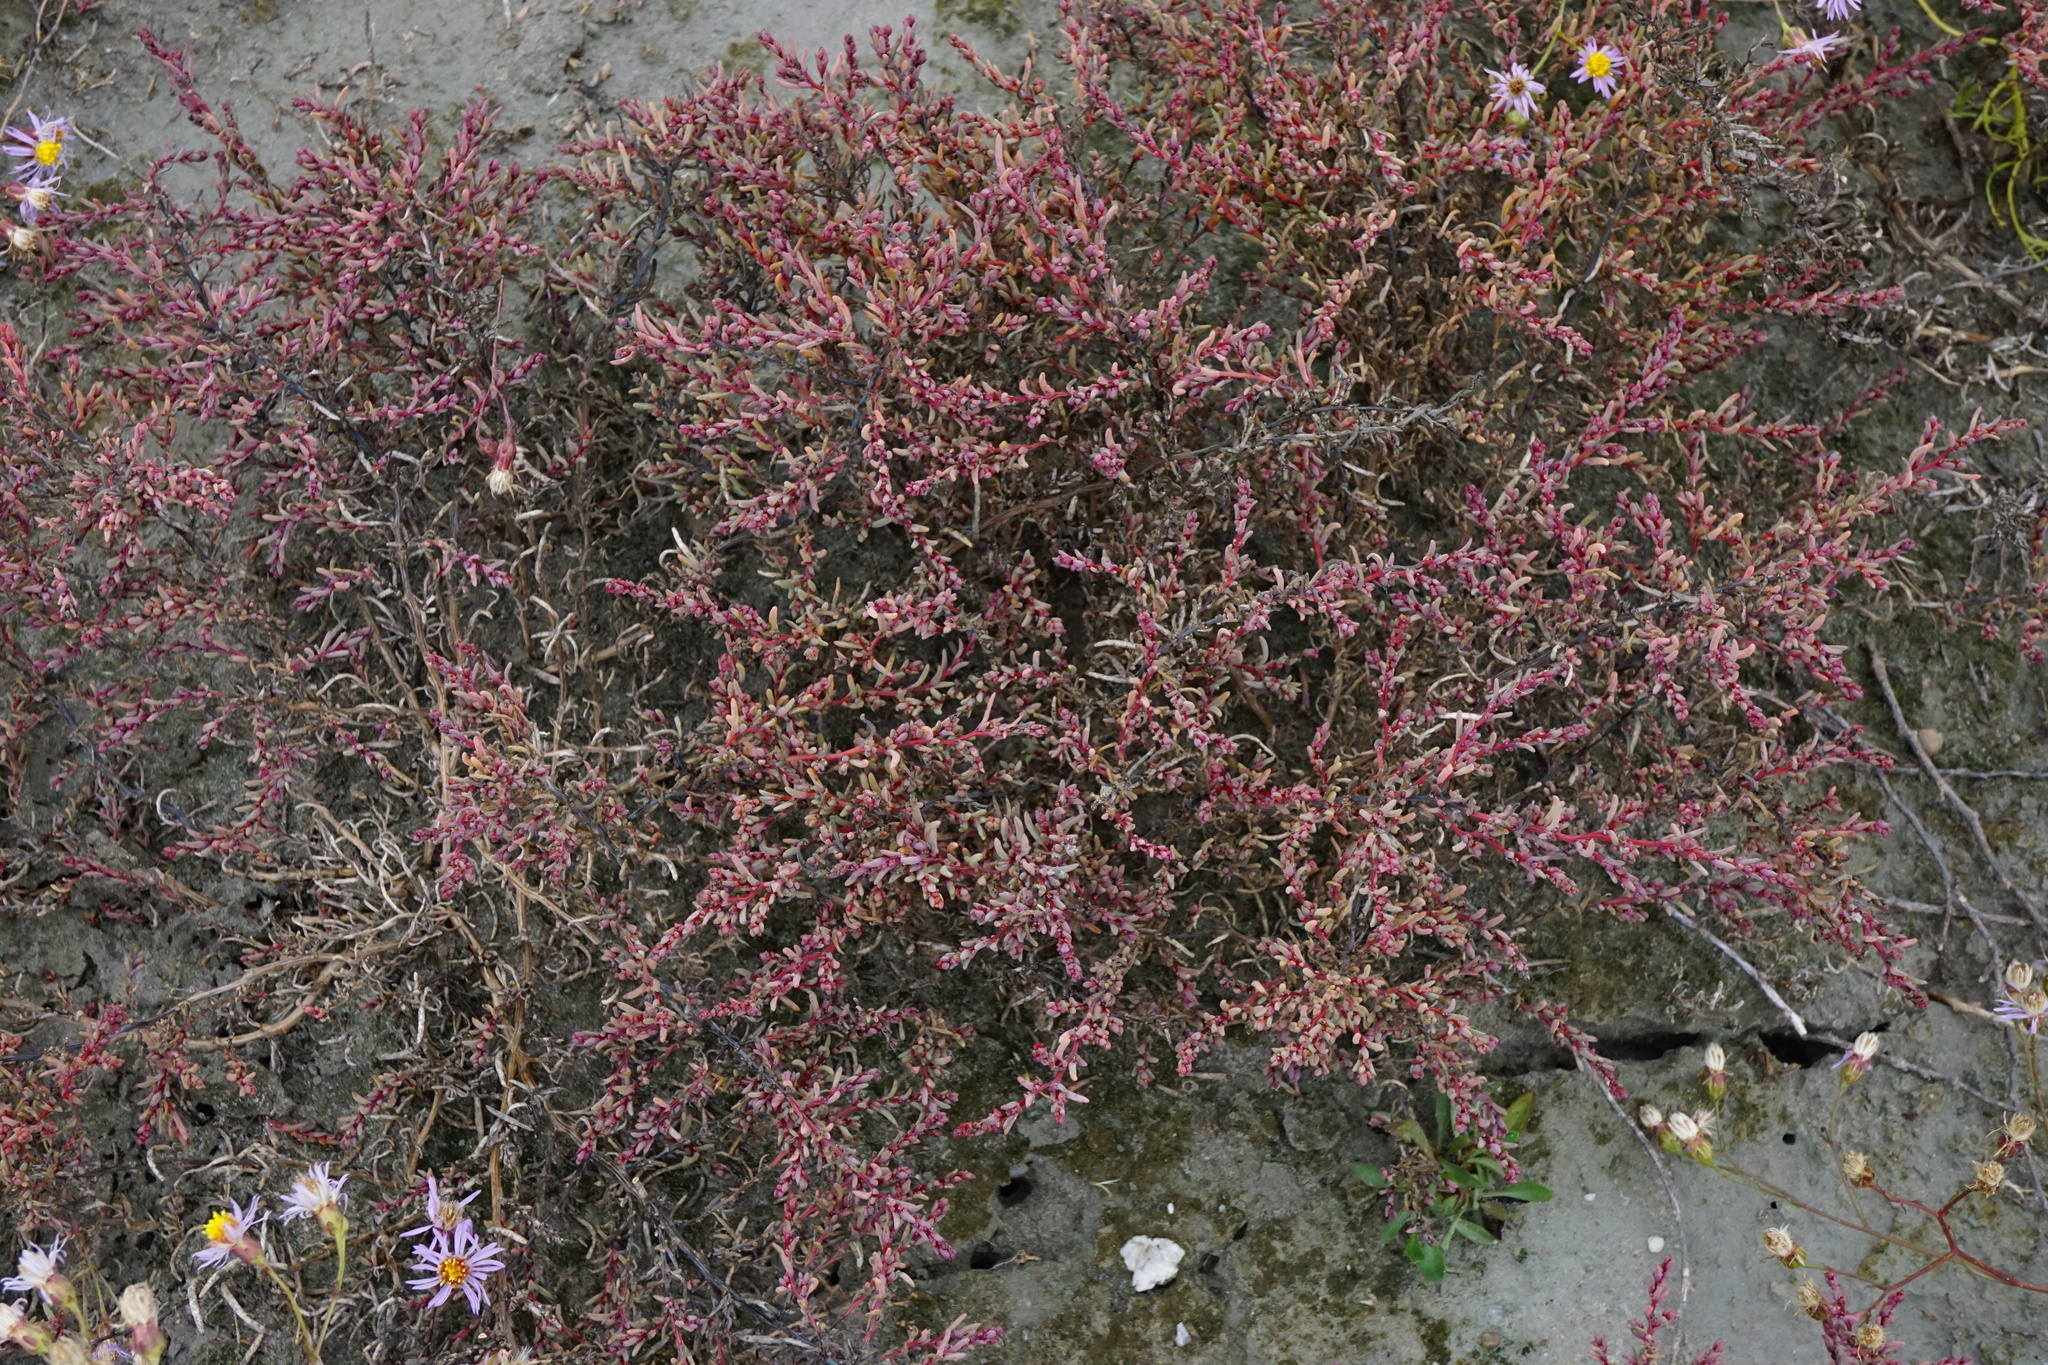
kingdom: Plantae
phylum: Tracheophyta
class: Magnoliopsida
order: Caryophyllales
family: Amaranthaceae
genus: Suaeda
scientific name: Suaeda pannonica
